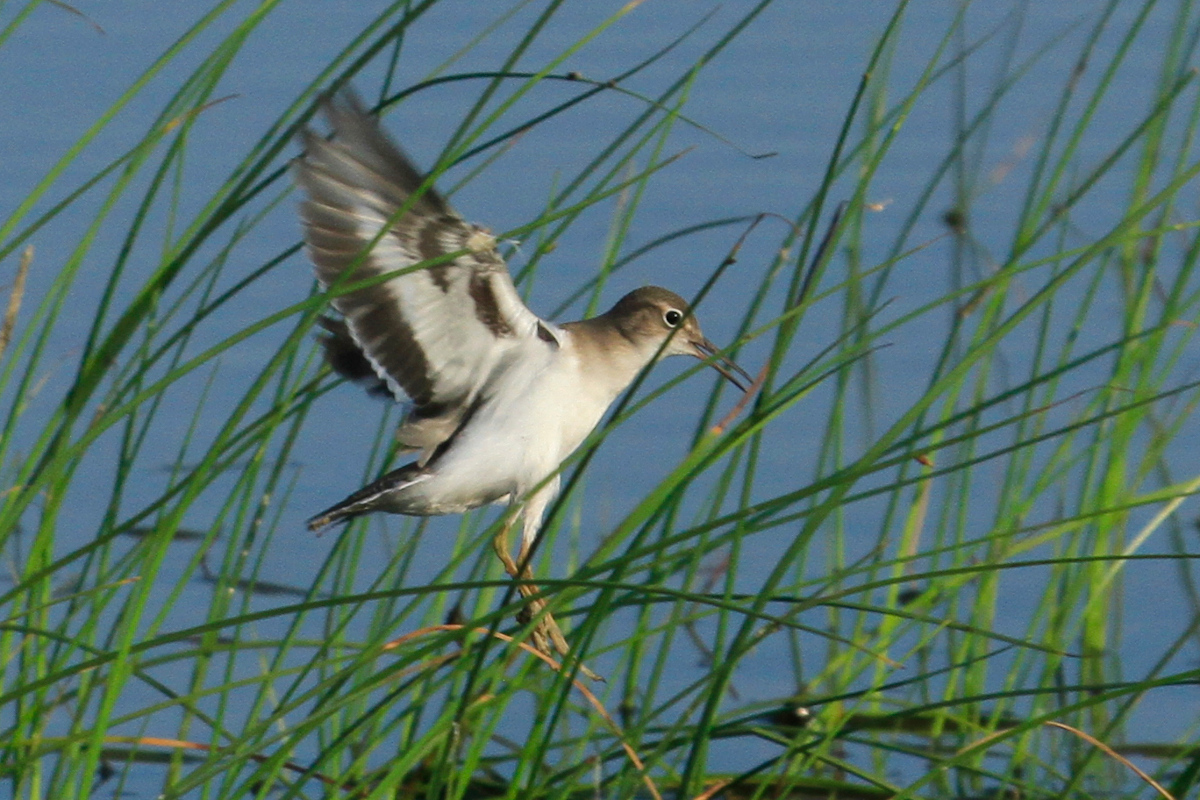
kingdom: Animalia
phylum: Chordata
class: Aves
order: Charadriiformes
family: Scolopacidae
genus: Actitis
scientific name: Actitis macularius
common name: Spotted sandpiper
